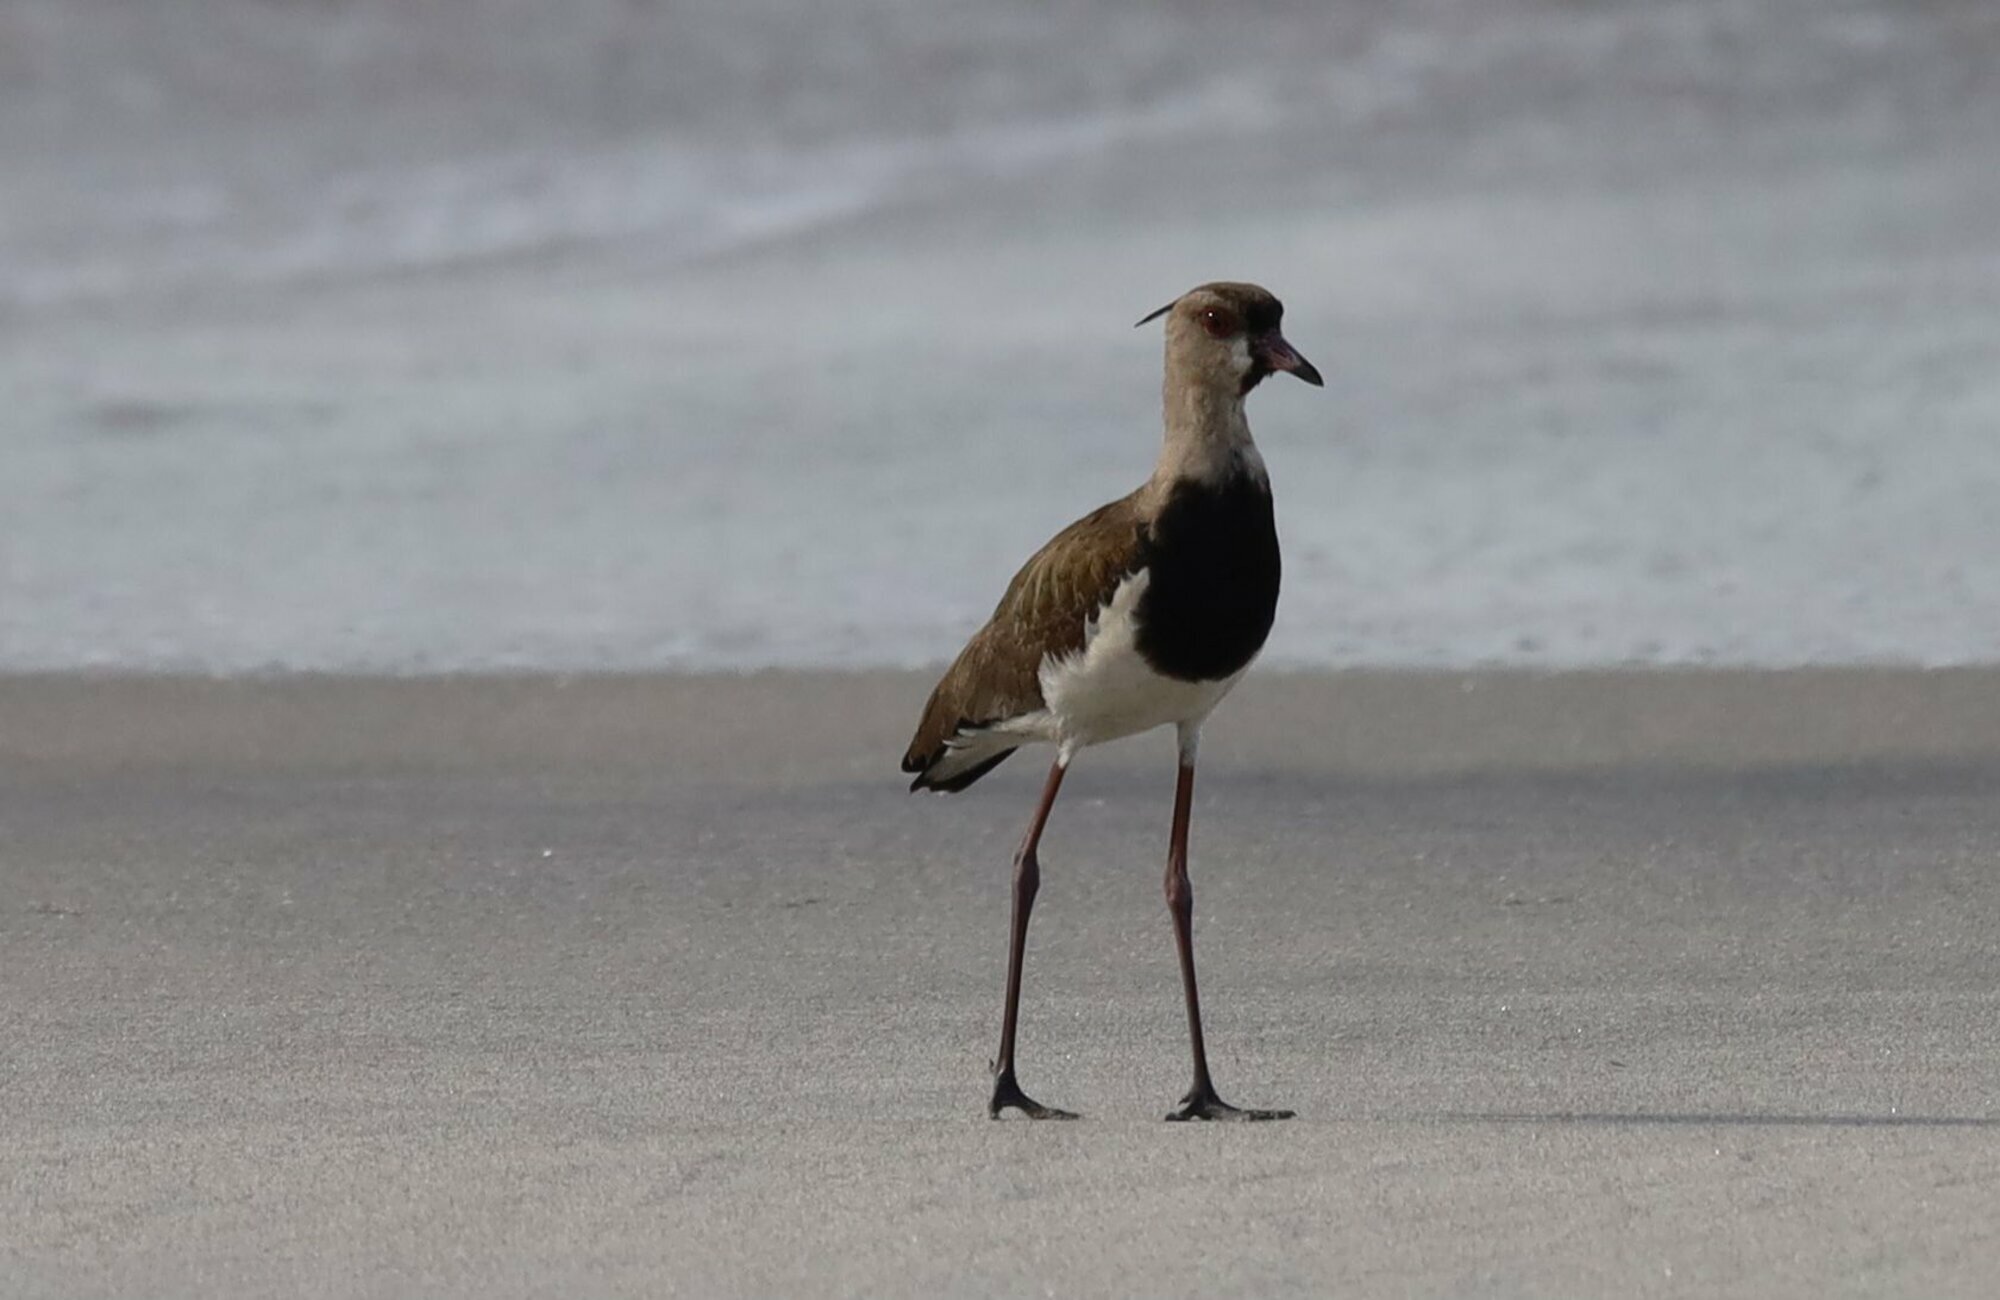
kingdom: Animalia
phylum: Chordata
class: Aves
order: Charadriiformes
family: Charadriidae
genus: Vanellus
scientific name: Vanellus chilensis
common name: Southern lapwing
